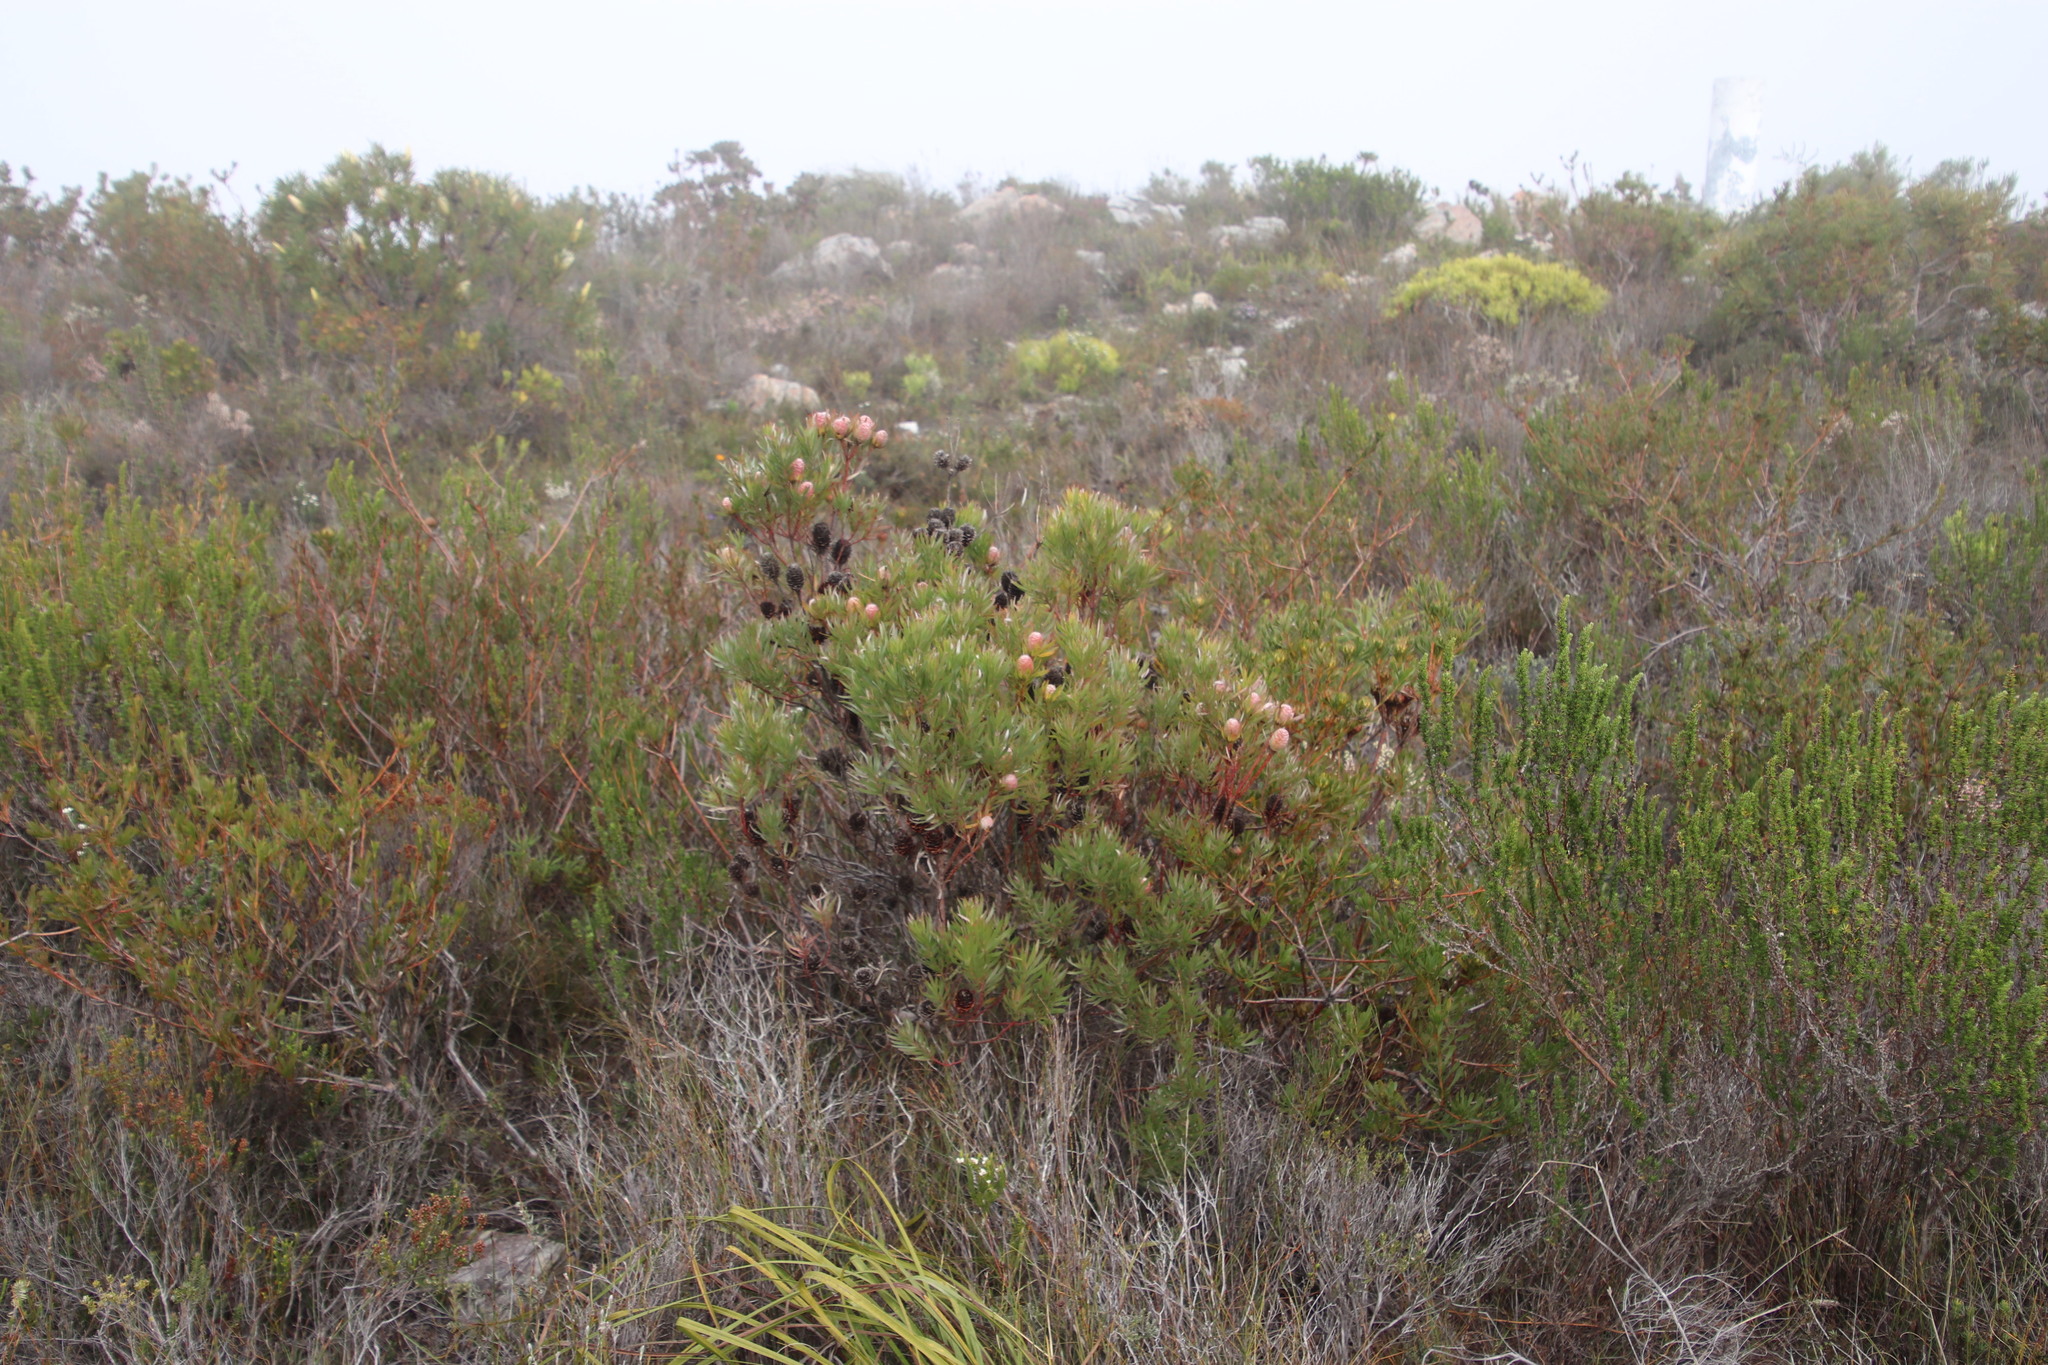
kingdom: Plantae
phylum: Tracheophyta
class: Magnoliopsida
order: Proteales
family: Proteaceae
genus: Leucadendron
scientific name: Leucadendron xanthoconus
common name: Sickle-leaf conebush
